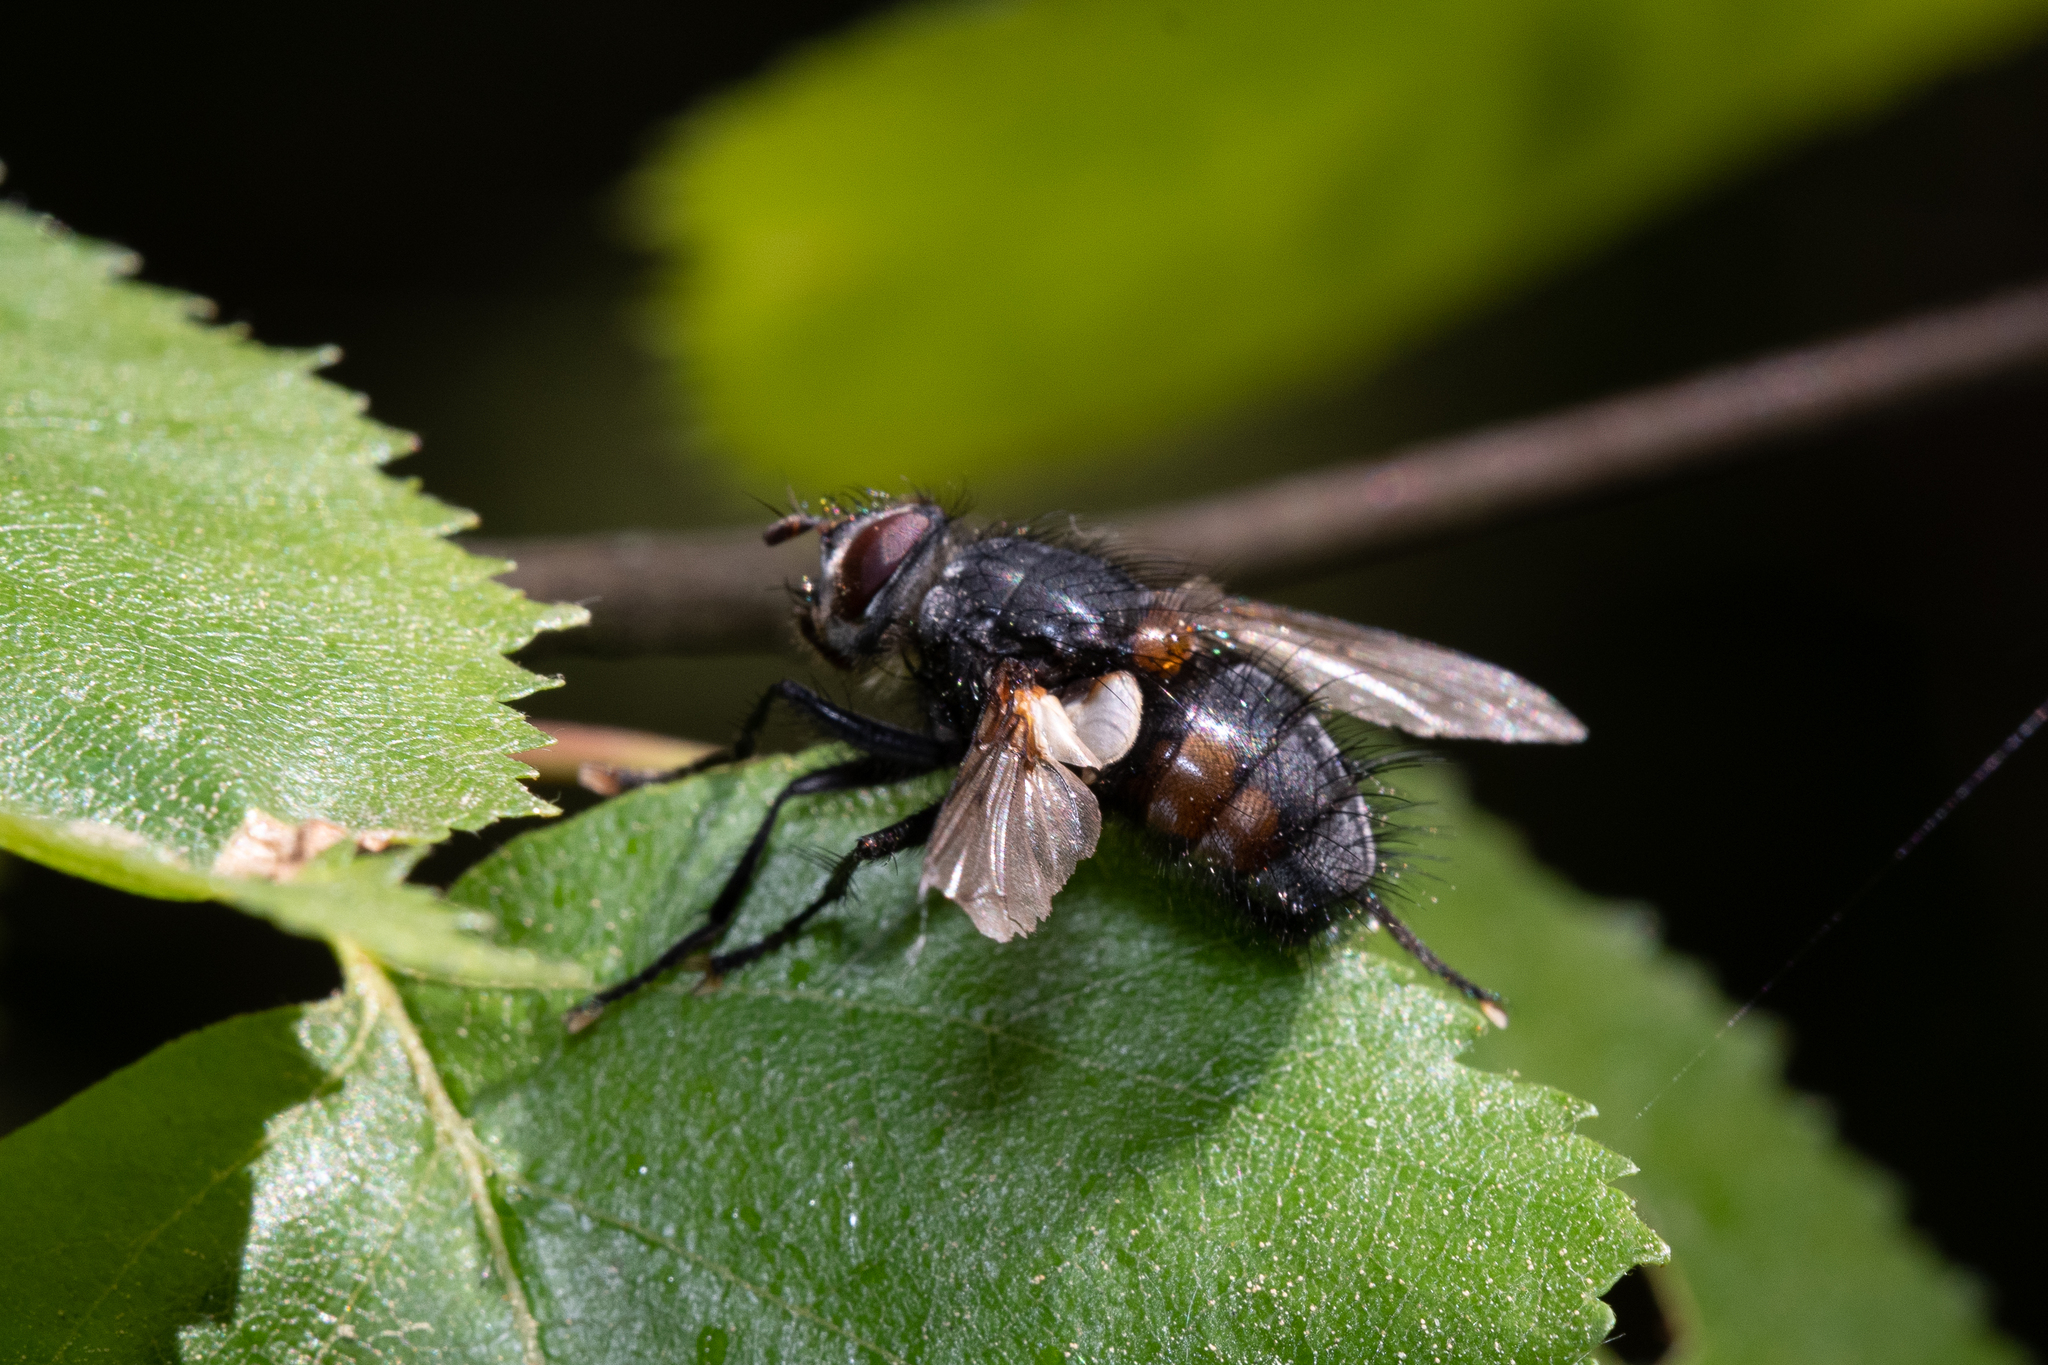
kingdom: Animalia
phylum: Arthropoda
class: Insecta
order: Diptera
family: Tachinidae
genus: Panzeria
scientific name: Panzeria rudis
